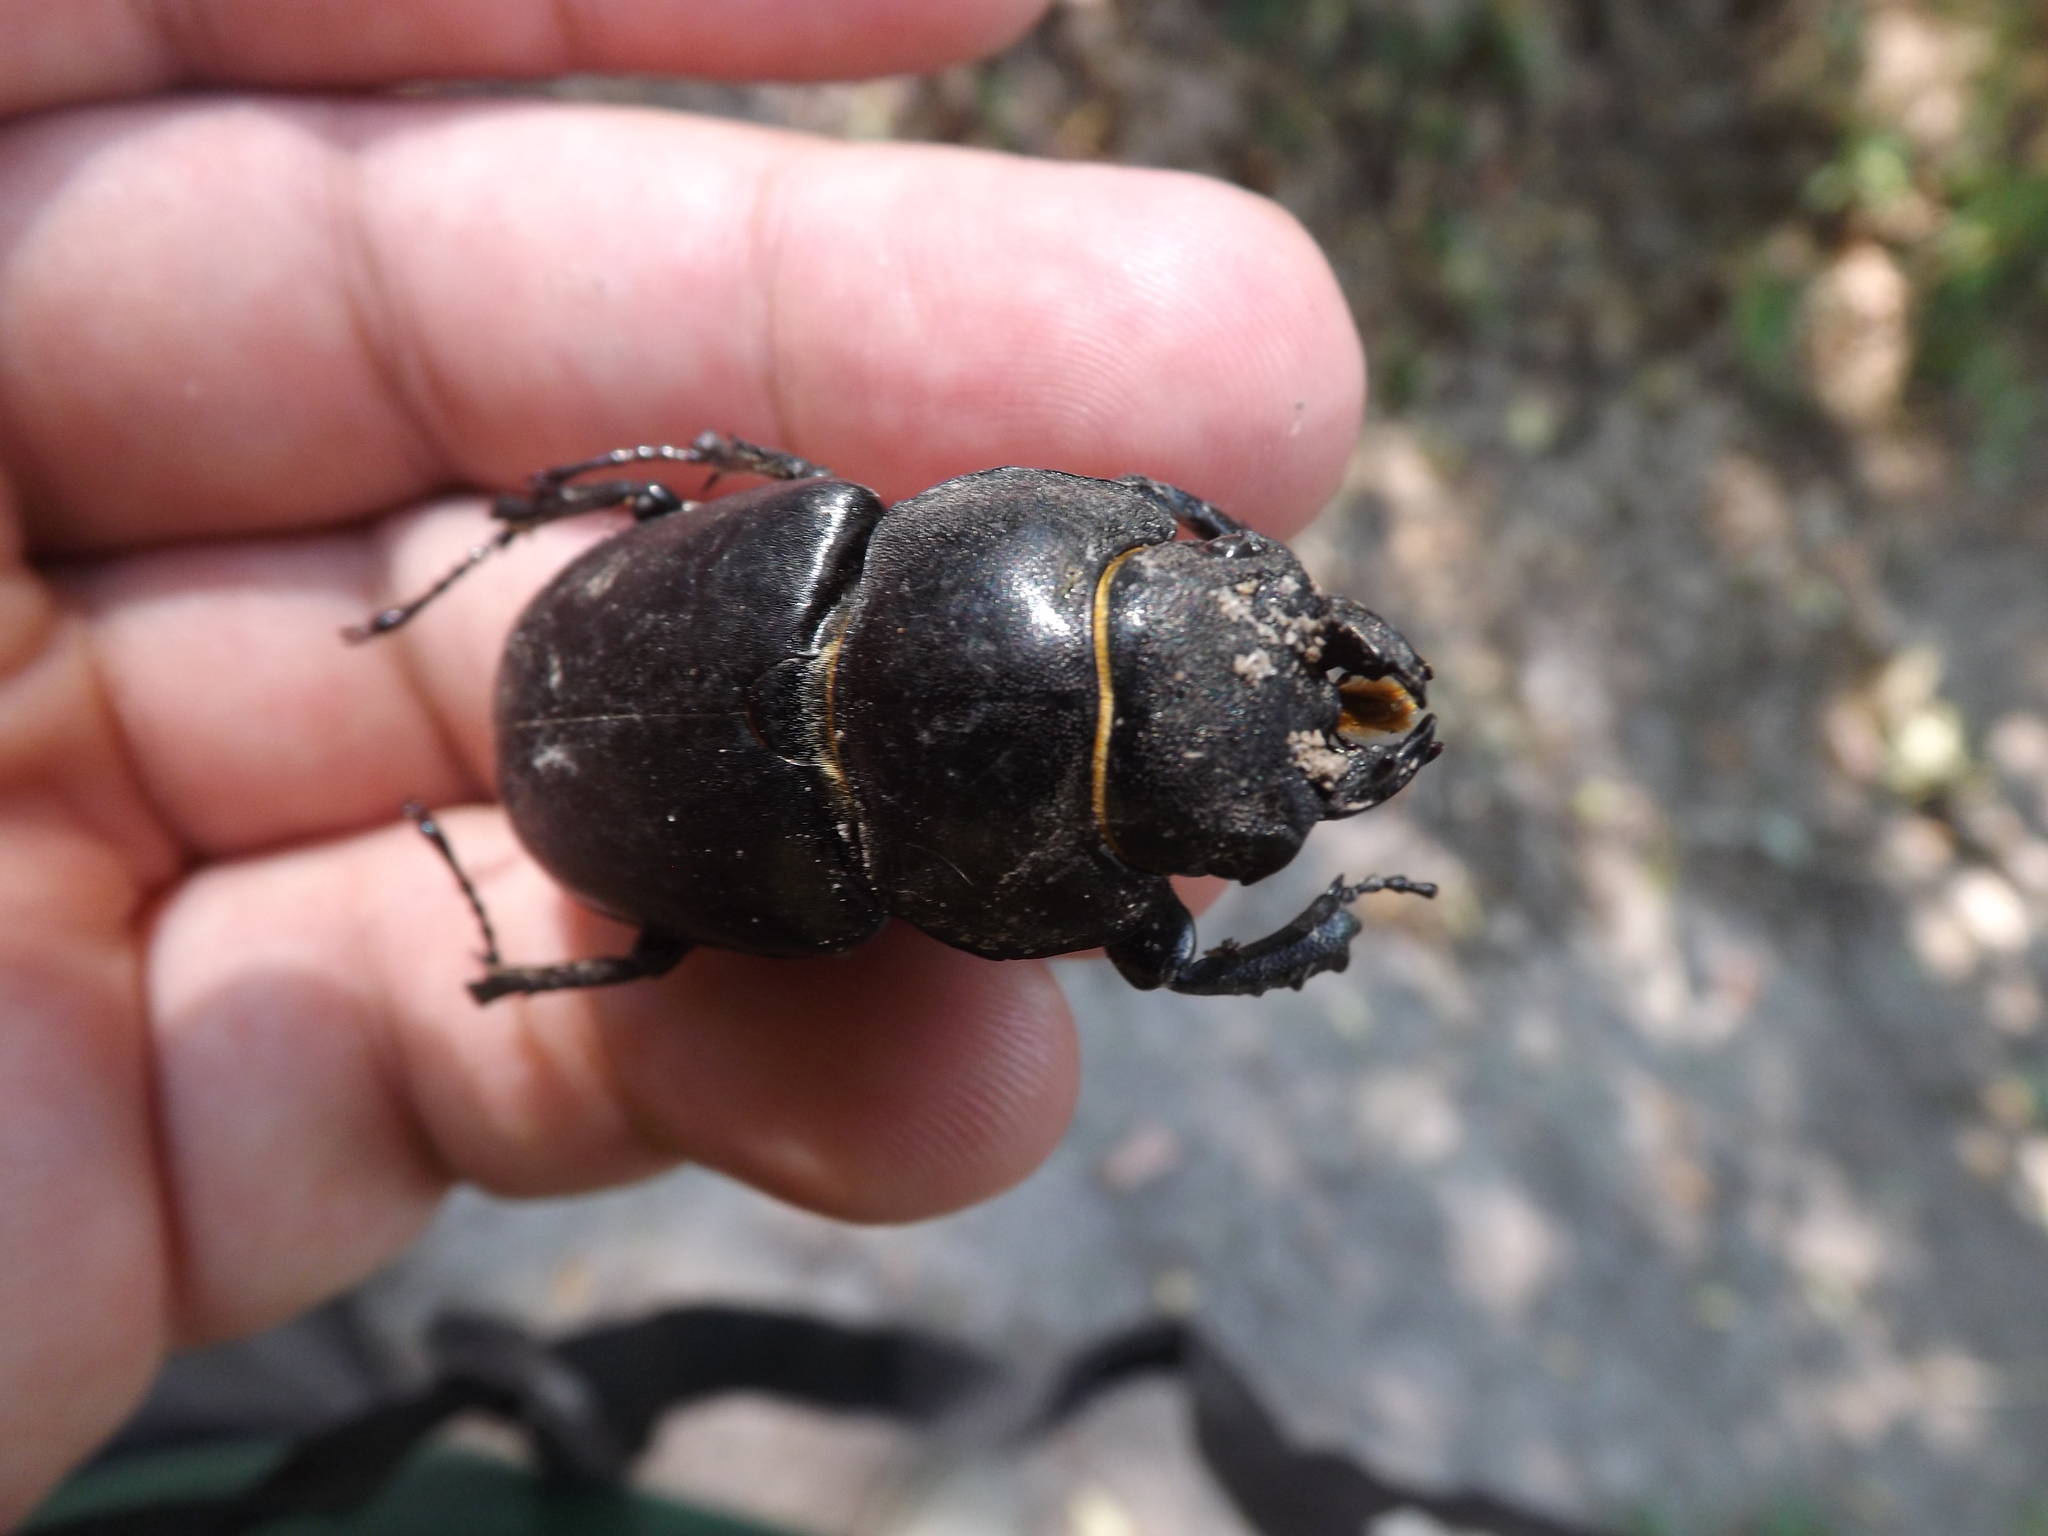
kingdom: Animalia
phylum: Arthropoda
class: Insecta
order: Coleoptera
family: Lucanidae
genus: Lucanus
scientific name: Lucanus cervus
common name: Stag beetle
